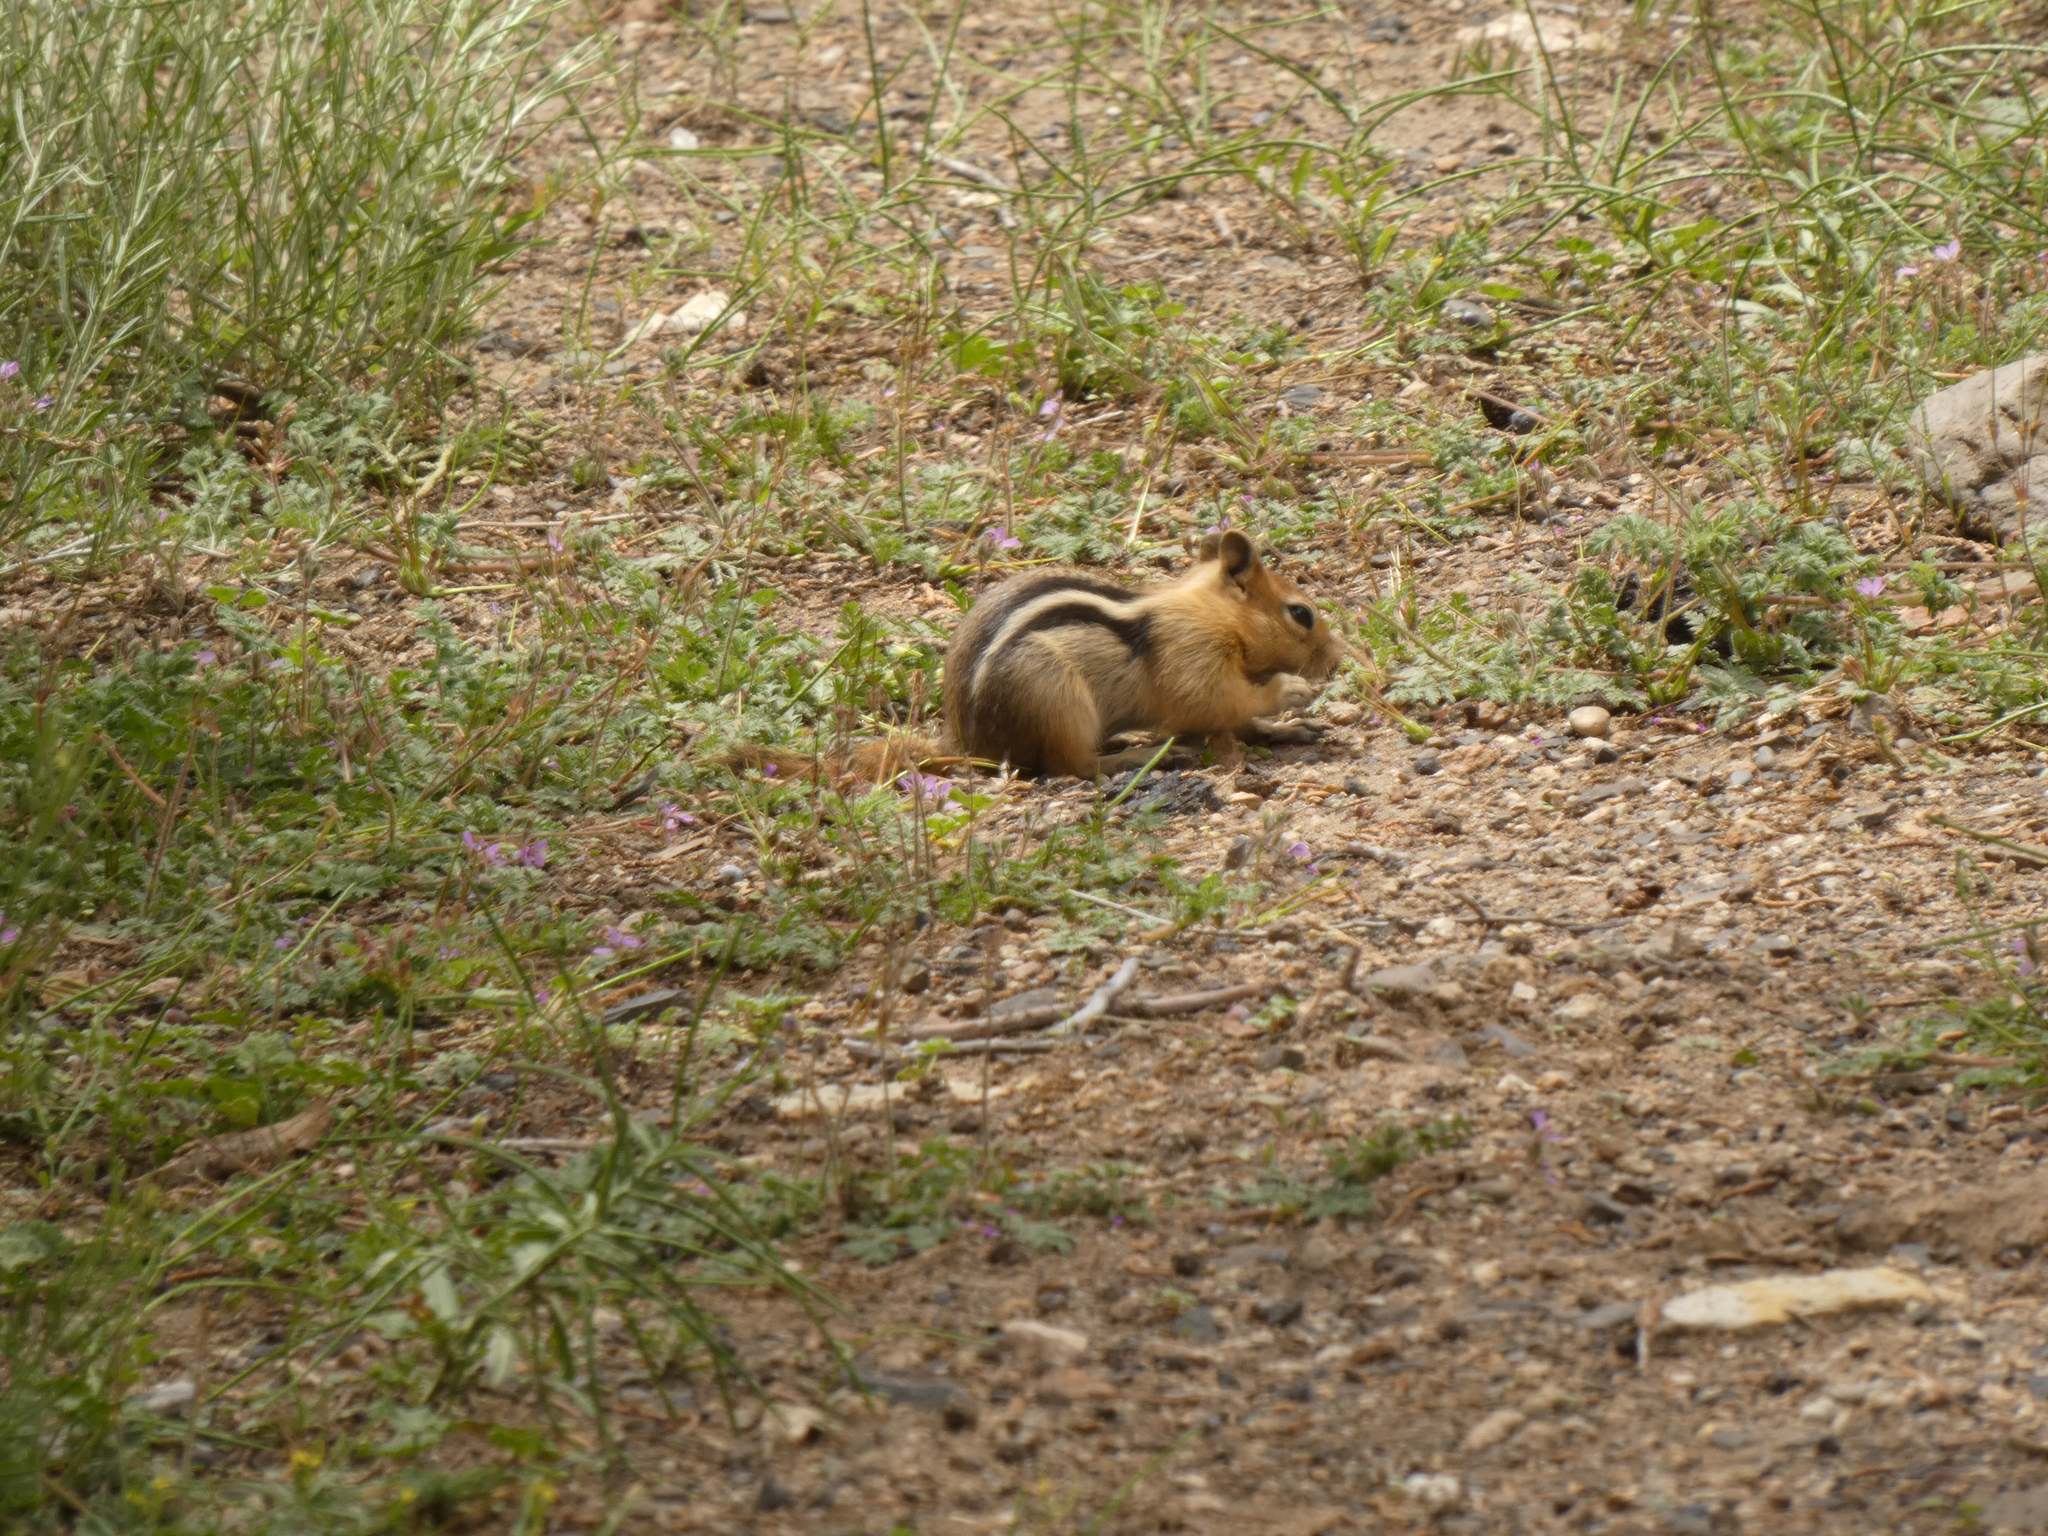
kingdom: Animalia
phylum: Chordata
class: Mammalia
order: Rodentia
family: Sciuridae
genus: Callospermophilus
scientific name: Callospermophilus lateralis
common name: Golden-mantled ground squirrel
